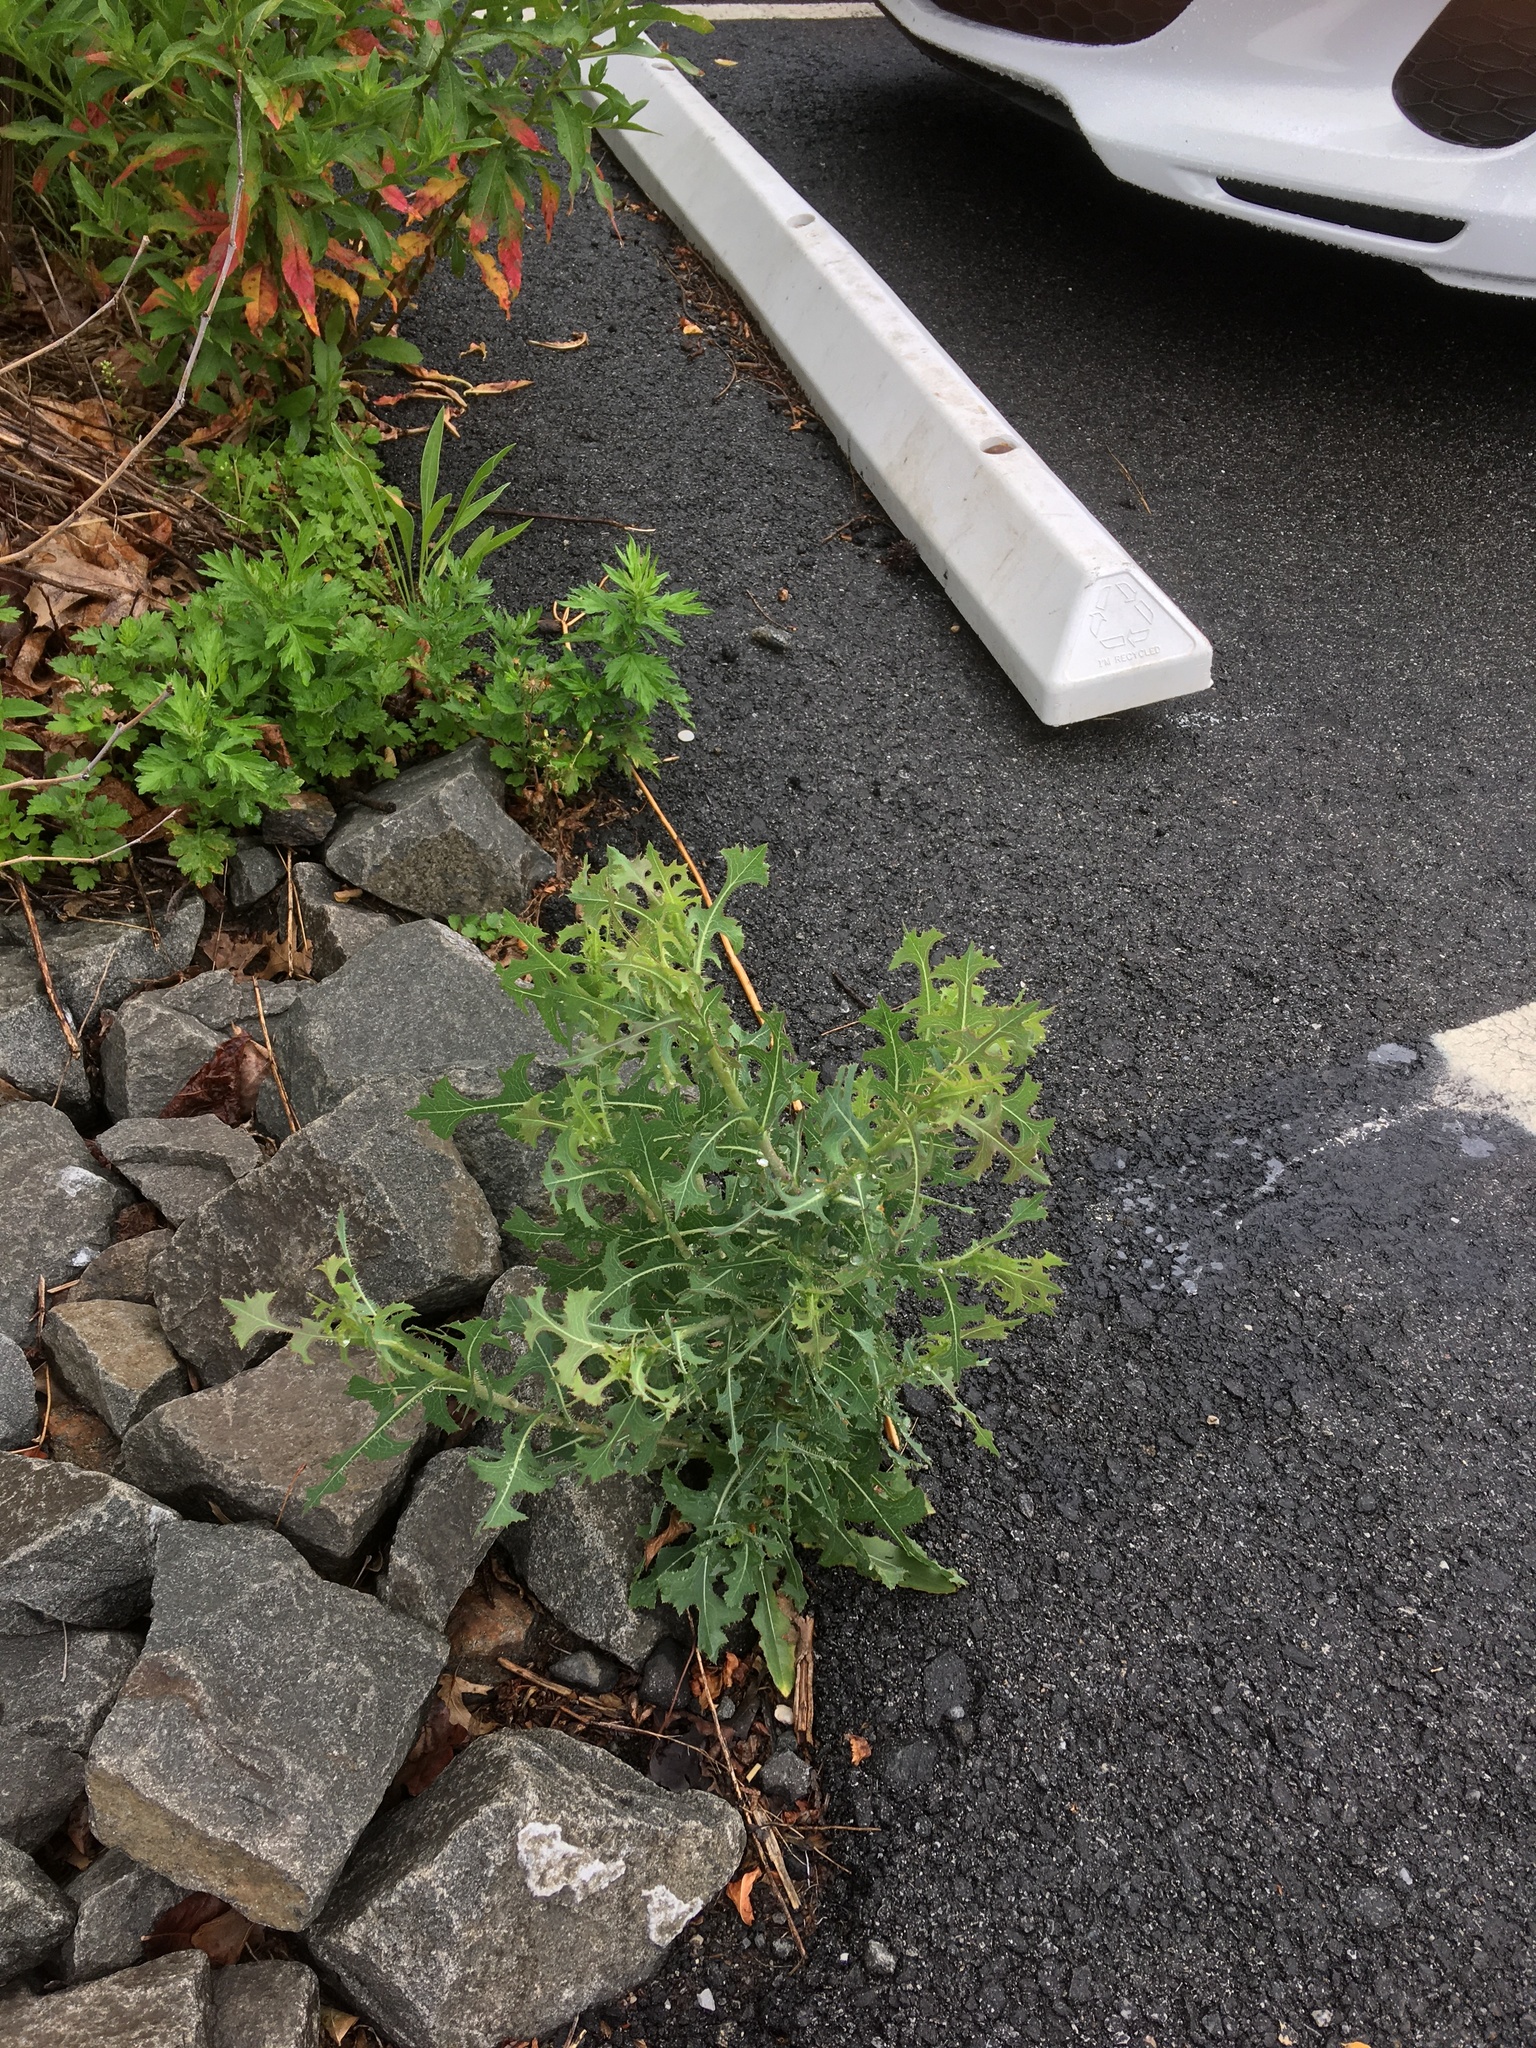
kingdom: Plantae
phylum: Tracheophyta
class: Magnoliopsida
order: Asterales
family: Asteraceae
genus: Lactuca
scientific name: Lactuca serriola
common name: Prickly lettuce
